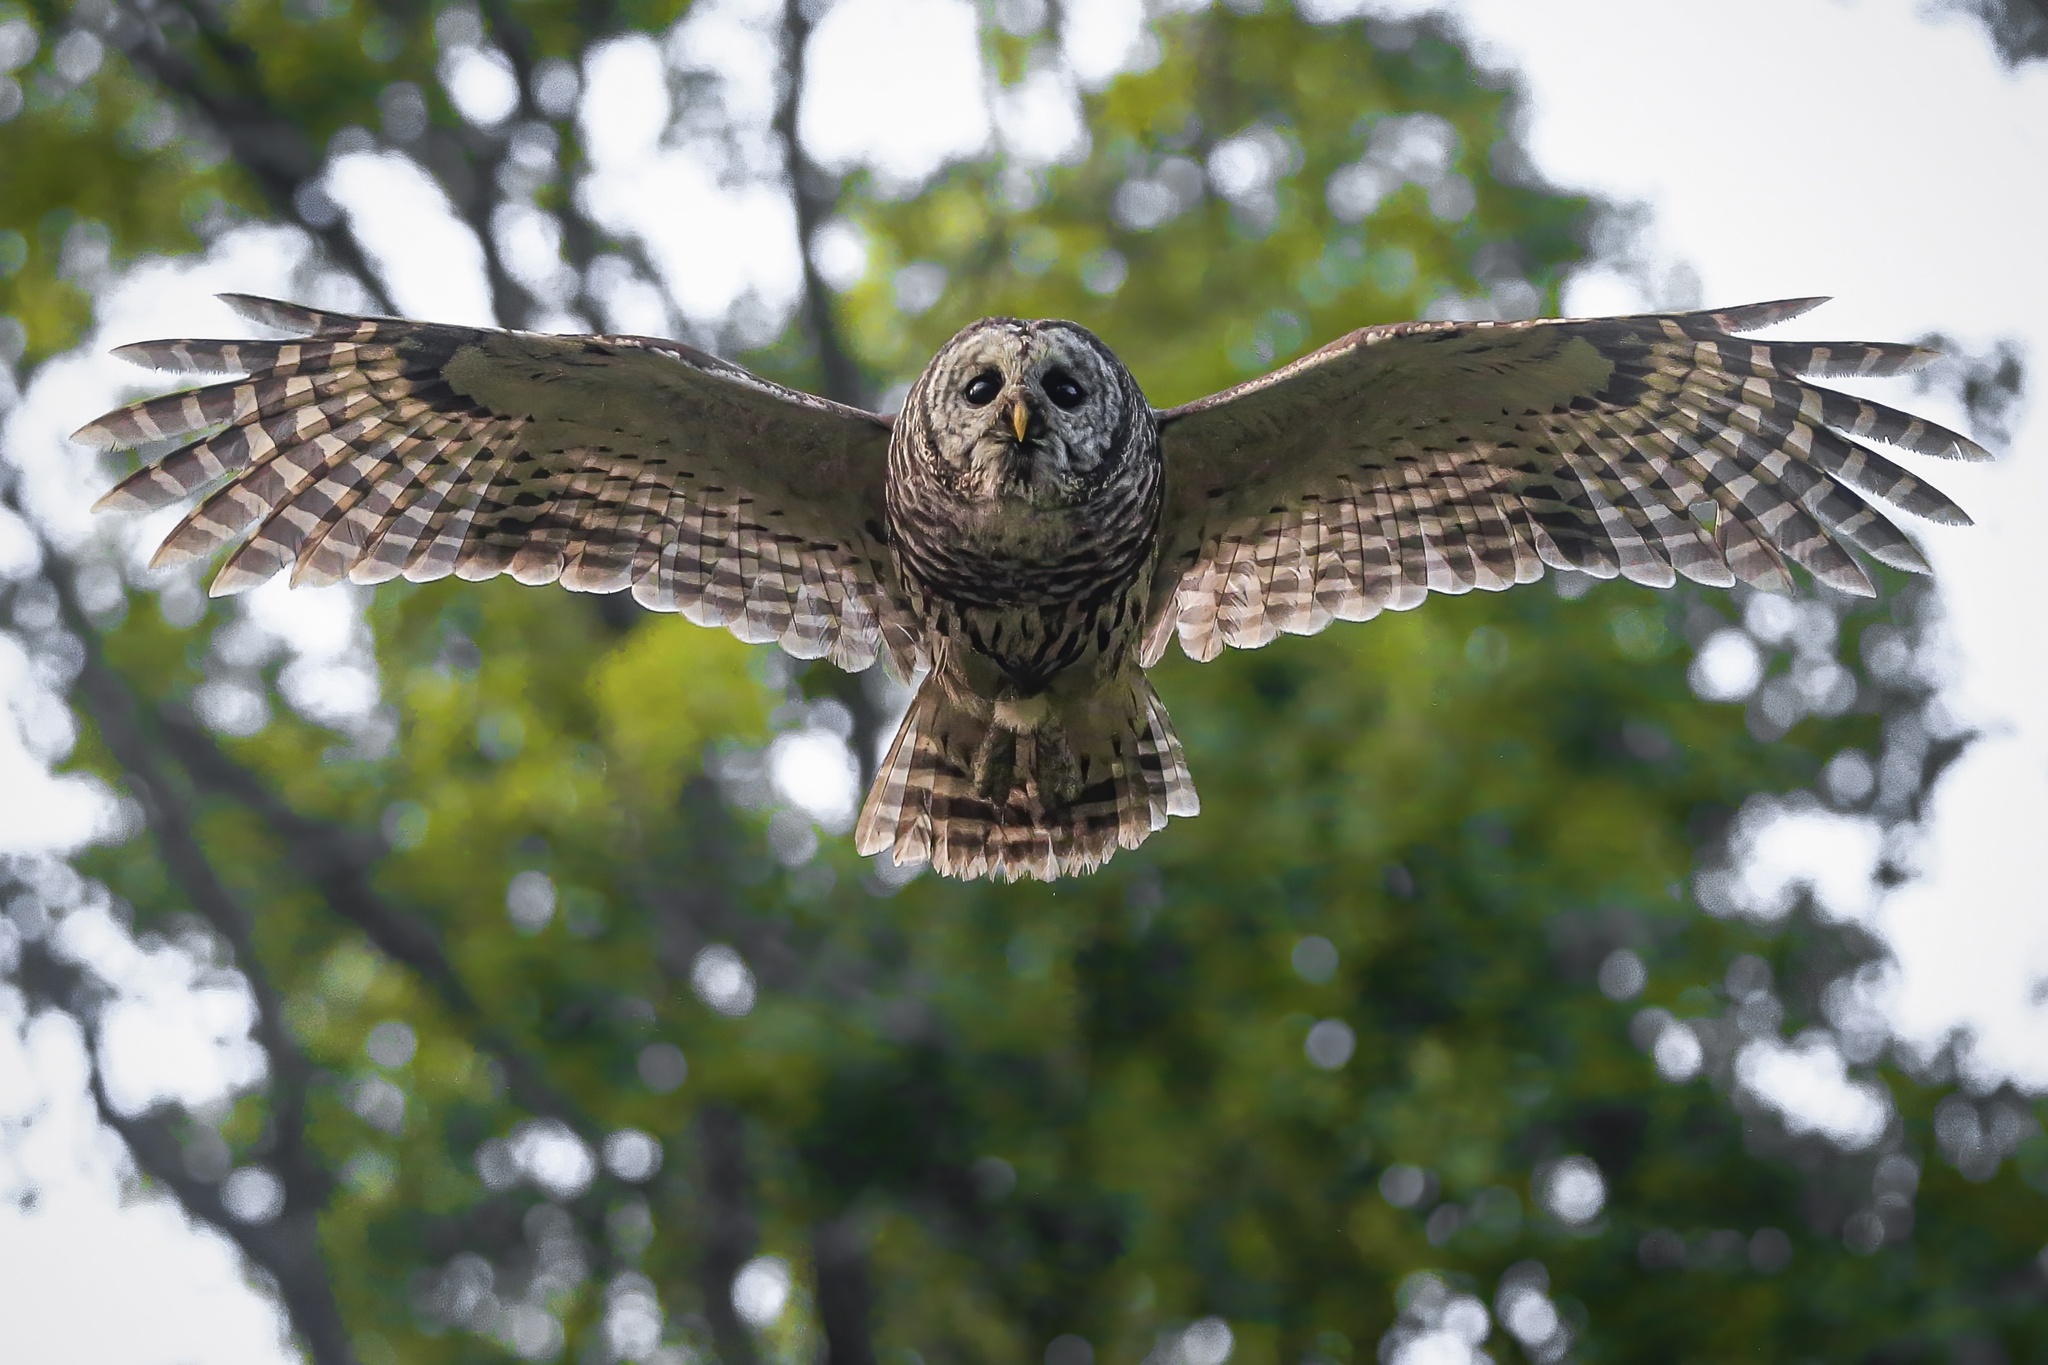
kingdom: Animalia
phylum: Chordata
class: Aves
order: Strigiformes
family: Strigidae
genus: Strix
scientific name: Strix varia
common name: Barred owl
